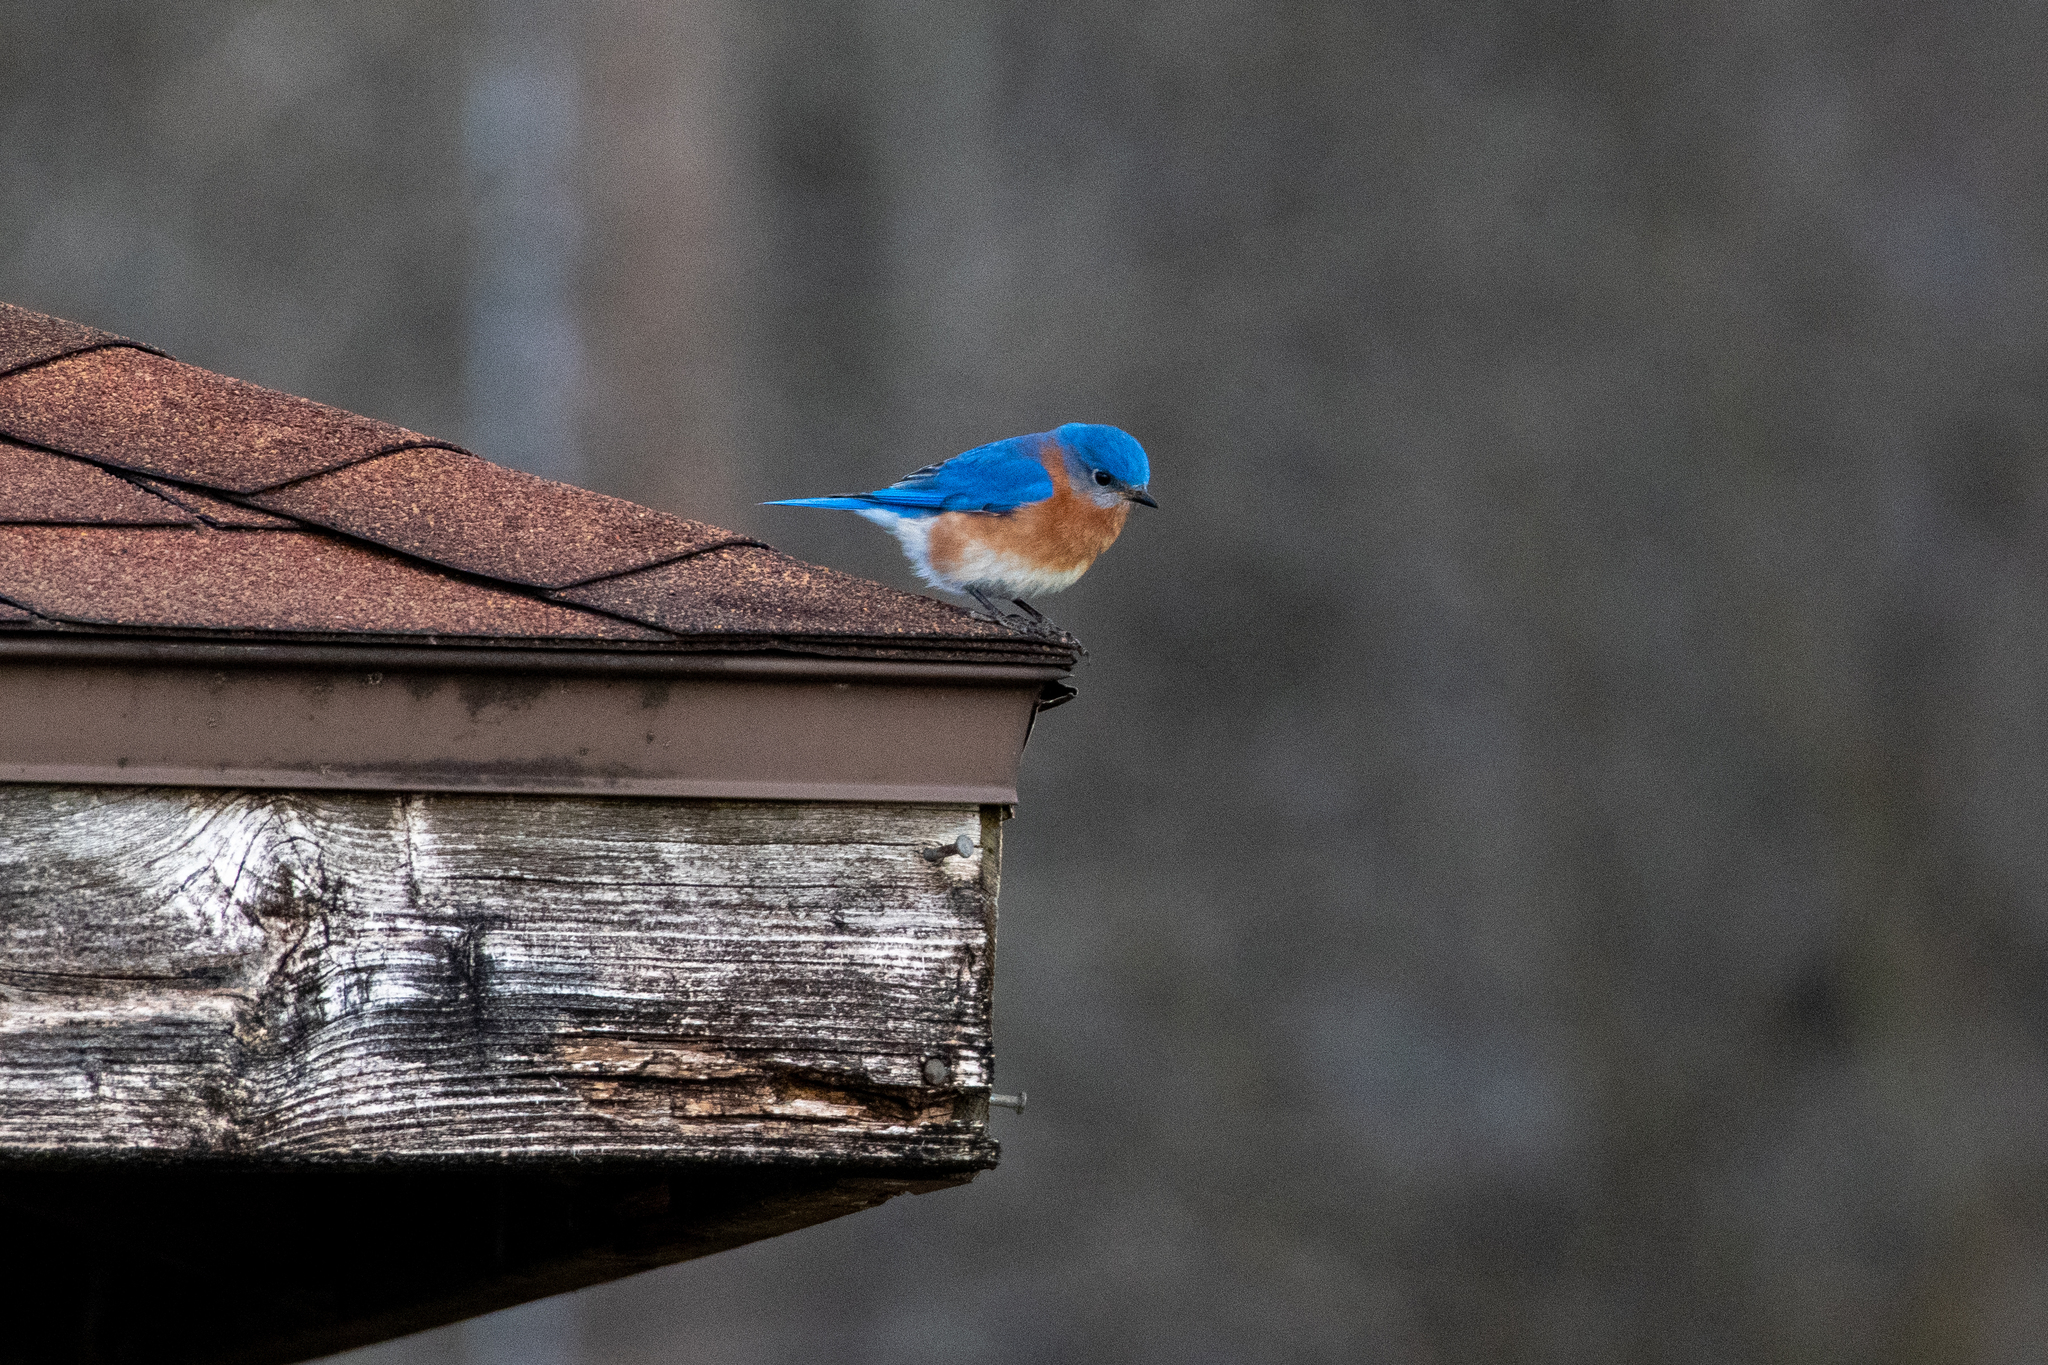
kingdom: Animalia
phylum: Chordata
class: Aves
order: Passeriformes
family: Turdidae
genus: Sialia
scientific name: Sialia sialis
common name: Eastern bluebird
